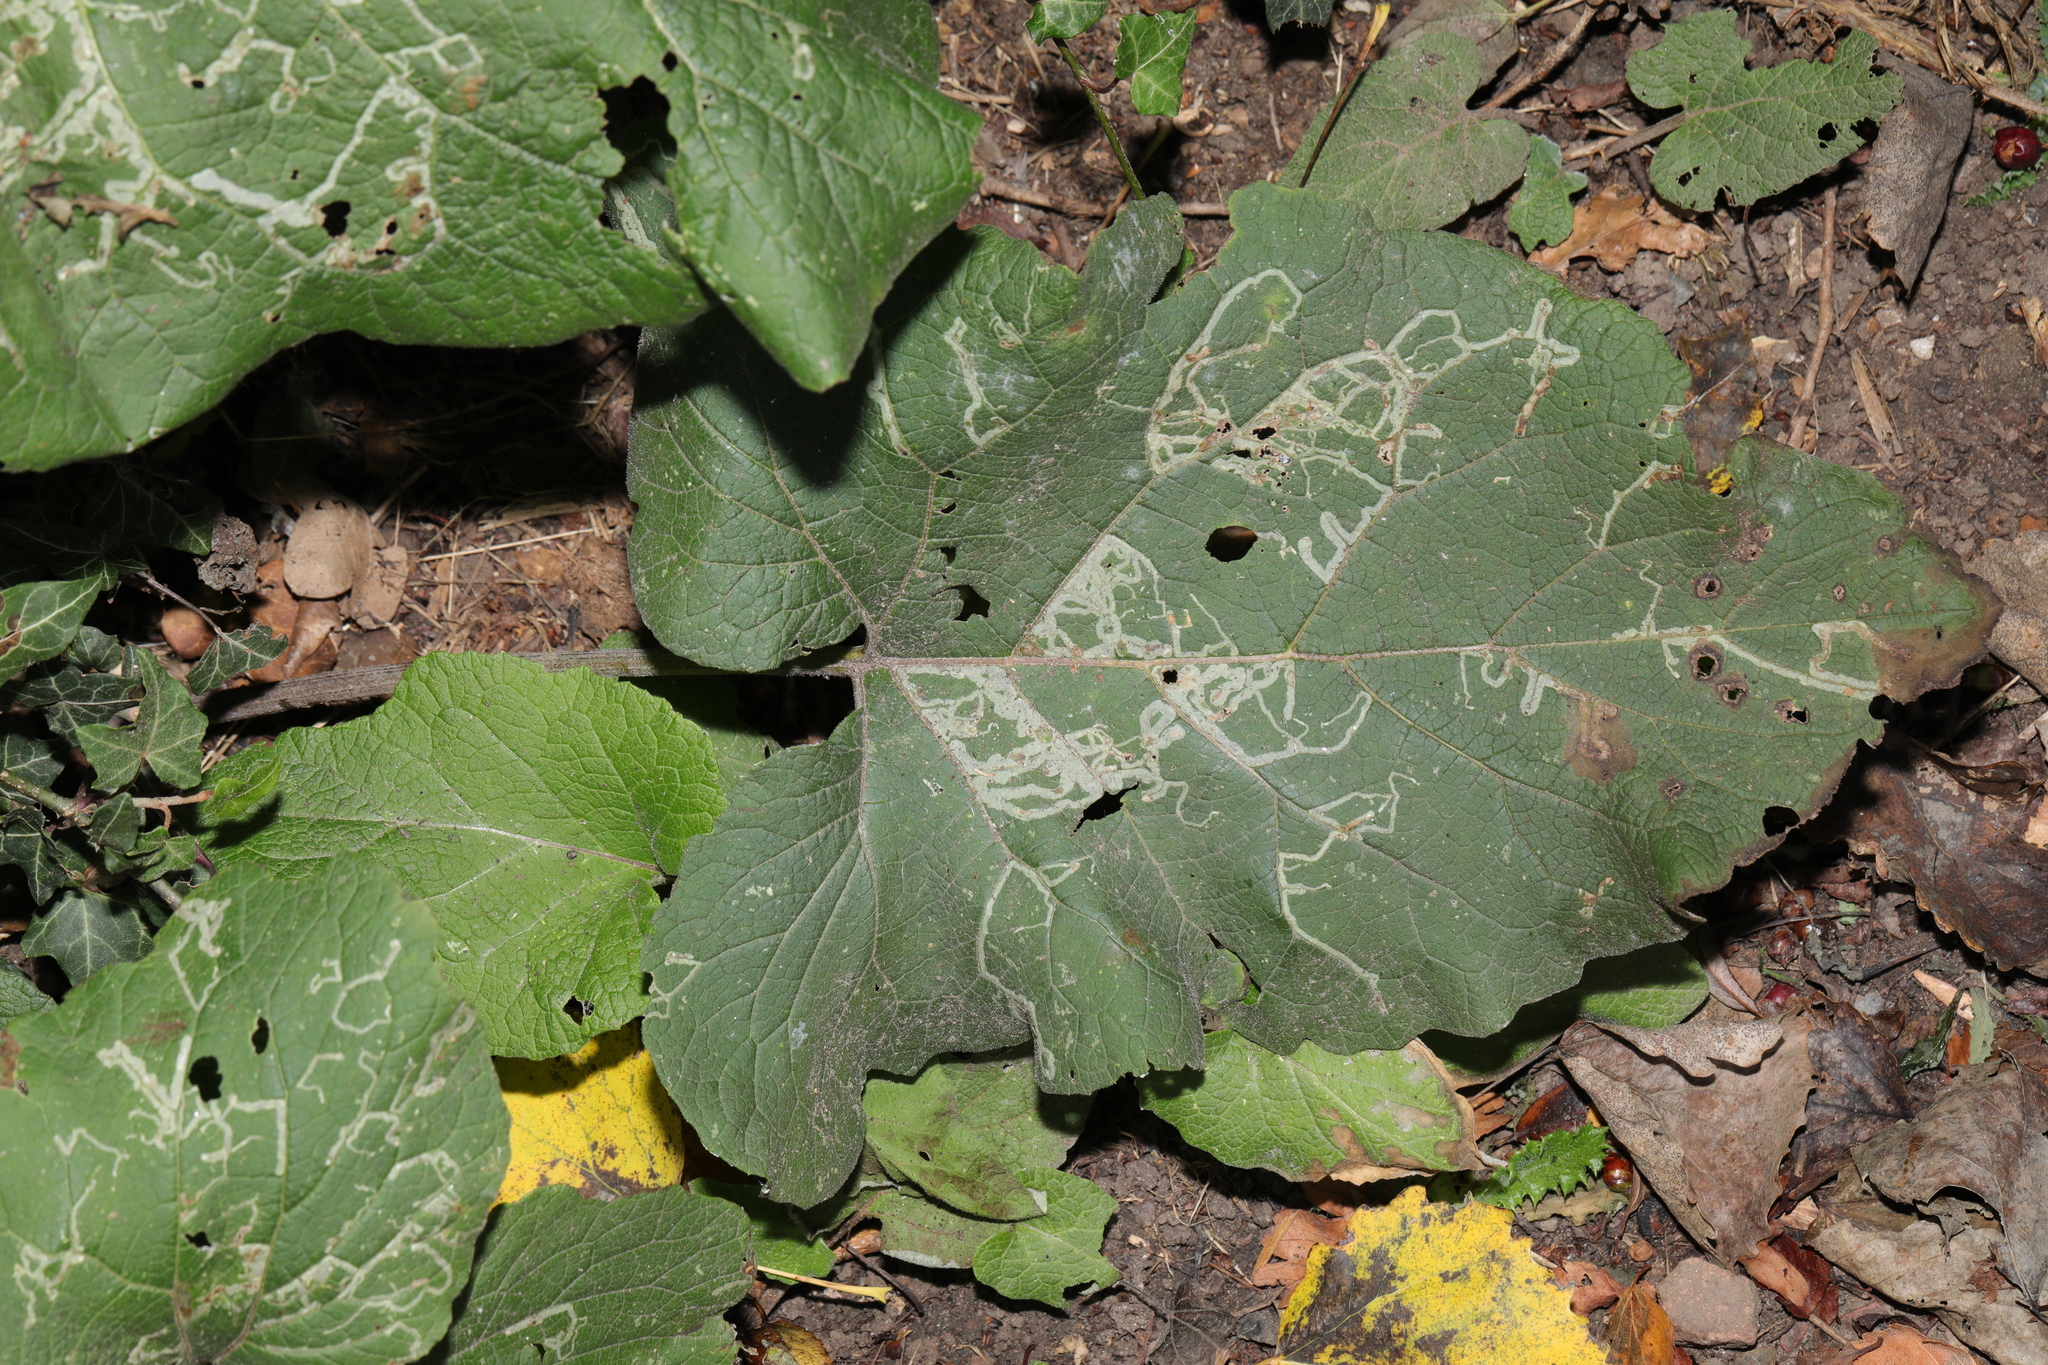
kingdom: Plantae
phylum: Tracheophyta
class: Magnoliopsida
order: Asterales
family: Asteraceae
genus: Arctium
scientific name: Arctium minus
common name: Lesser burdock
